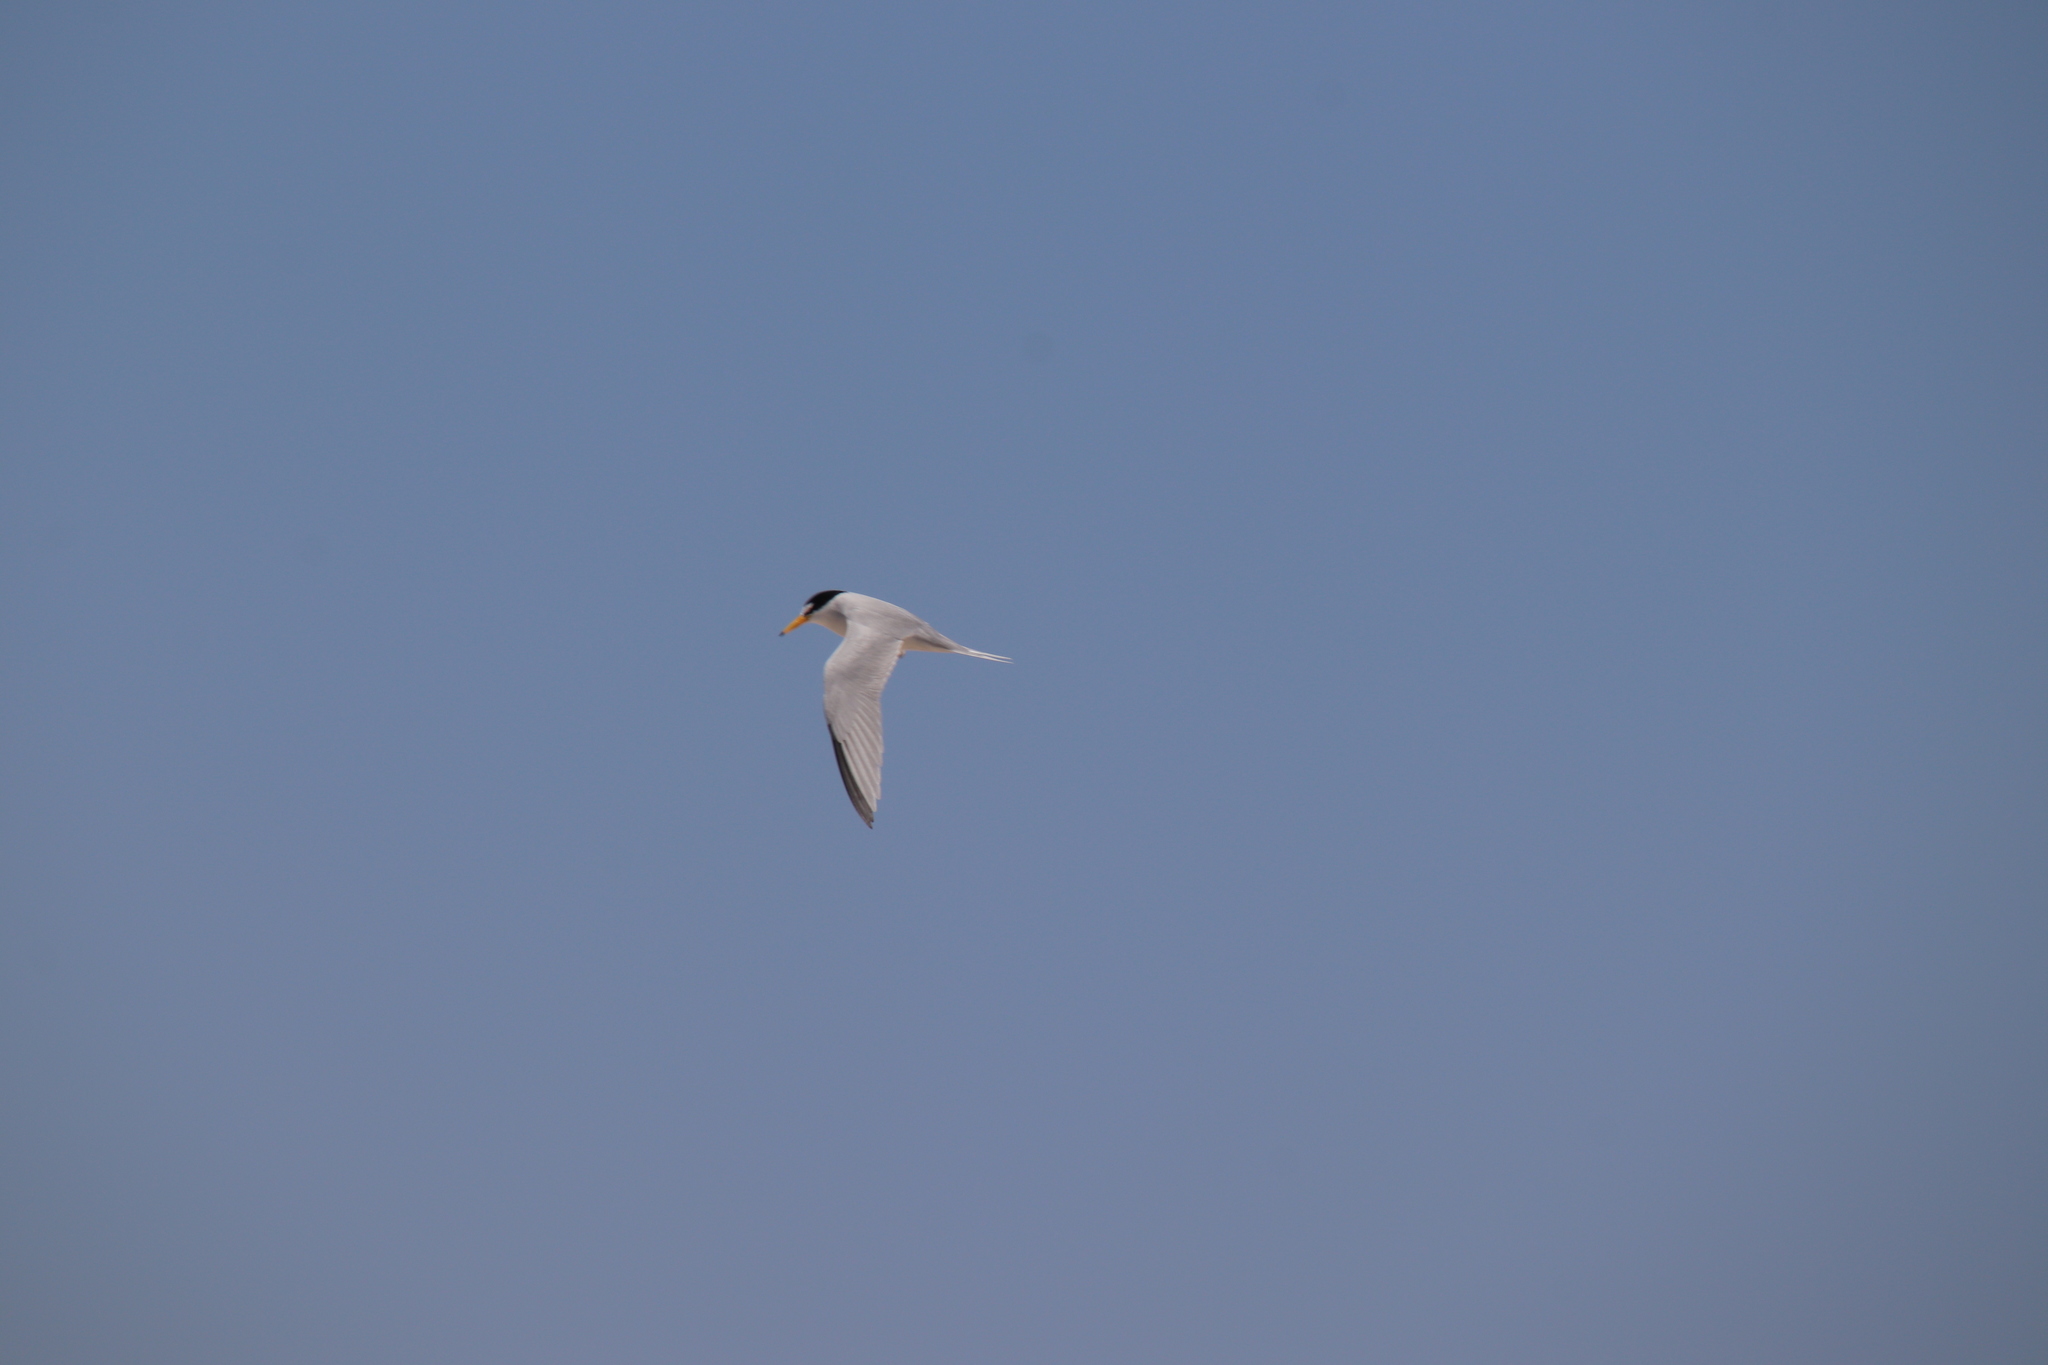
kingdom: Animalia
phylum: Chordata
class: Aves
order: Charadriiformes
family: Laridae
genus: Sternula
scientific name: Sternula antillarum
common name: Least tern
